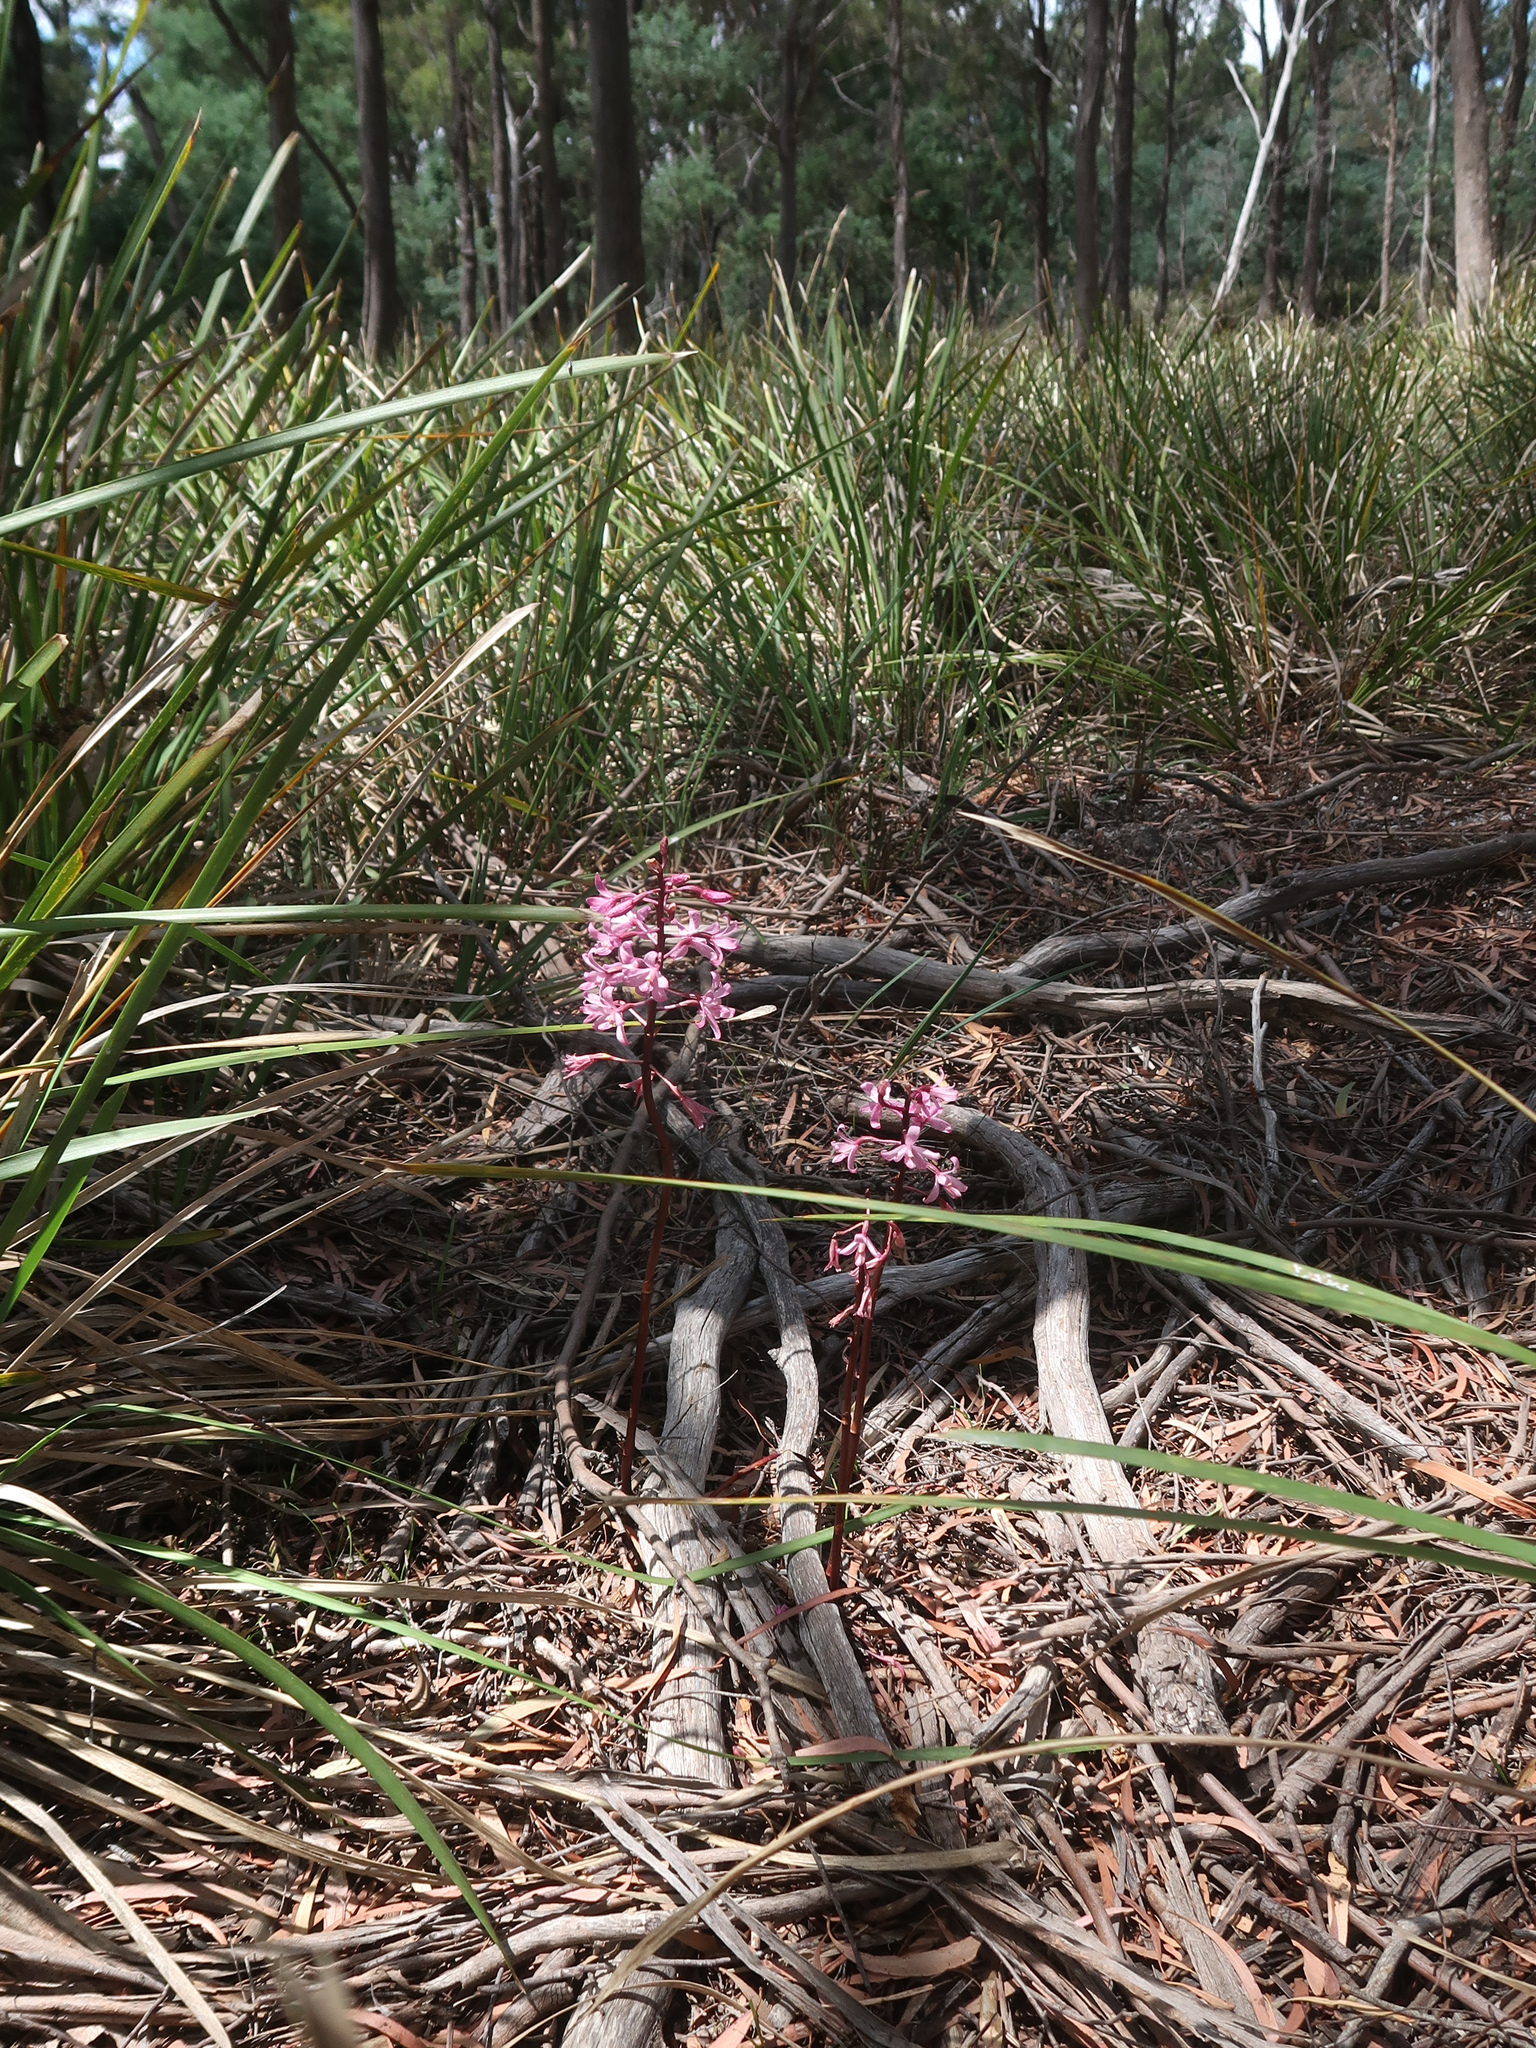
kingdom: Plantae
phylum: Tracheophyta
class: Liliopsida
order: Asparagales
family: Orchidaceae
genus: Dipodium
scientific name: Dipodium roseum
